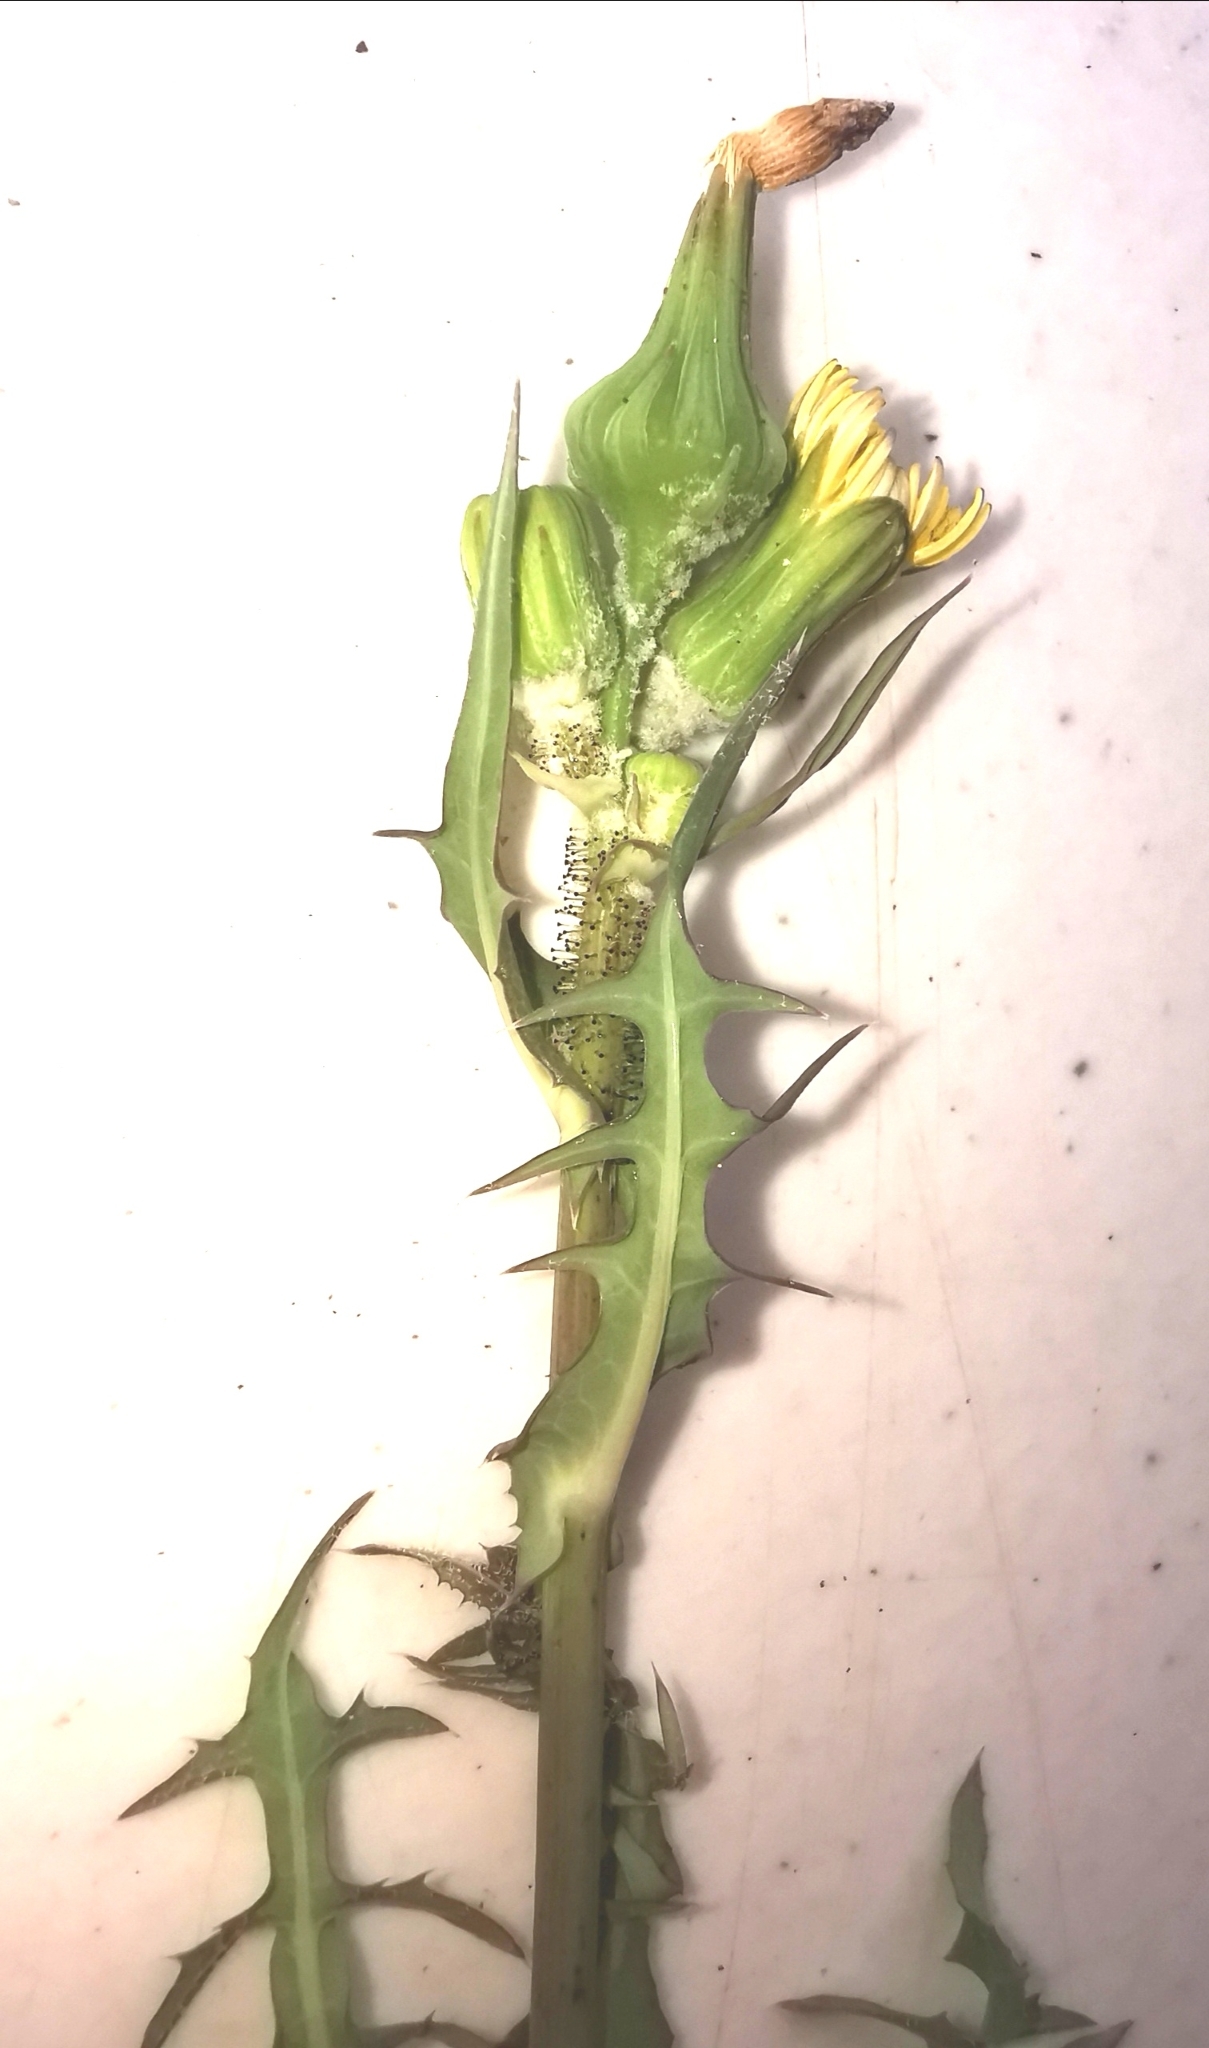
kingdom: Plantae
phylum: Tracheophyta
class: Magnoliopsida
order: Asterales
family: Asteraceae
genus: Sonchus
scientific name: Sonchus asper
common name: Prickly sow-thistle
